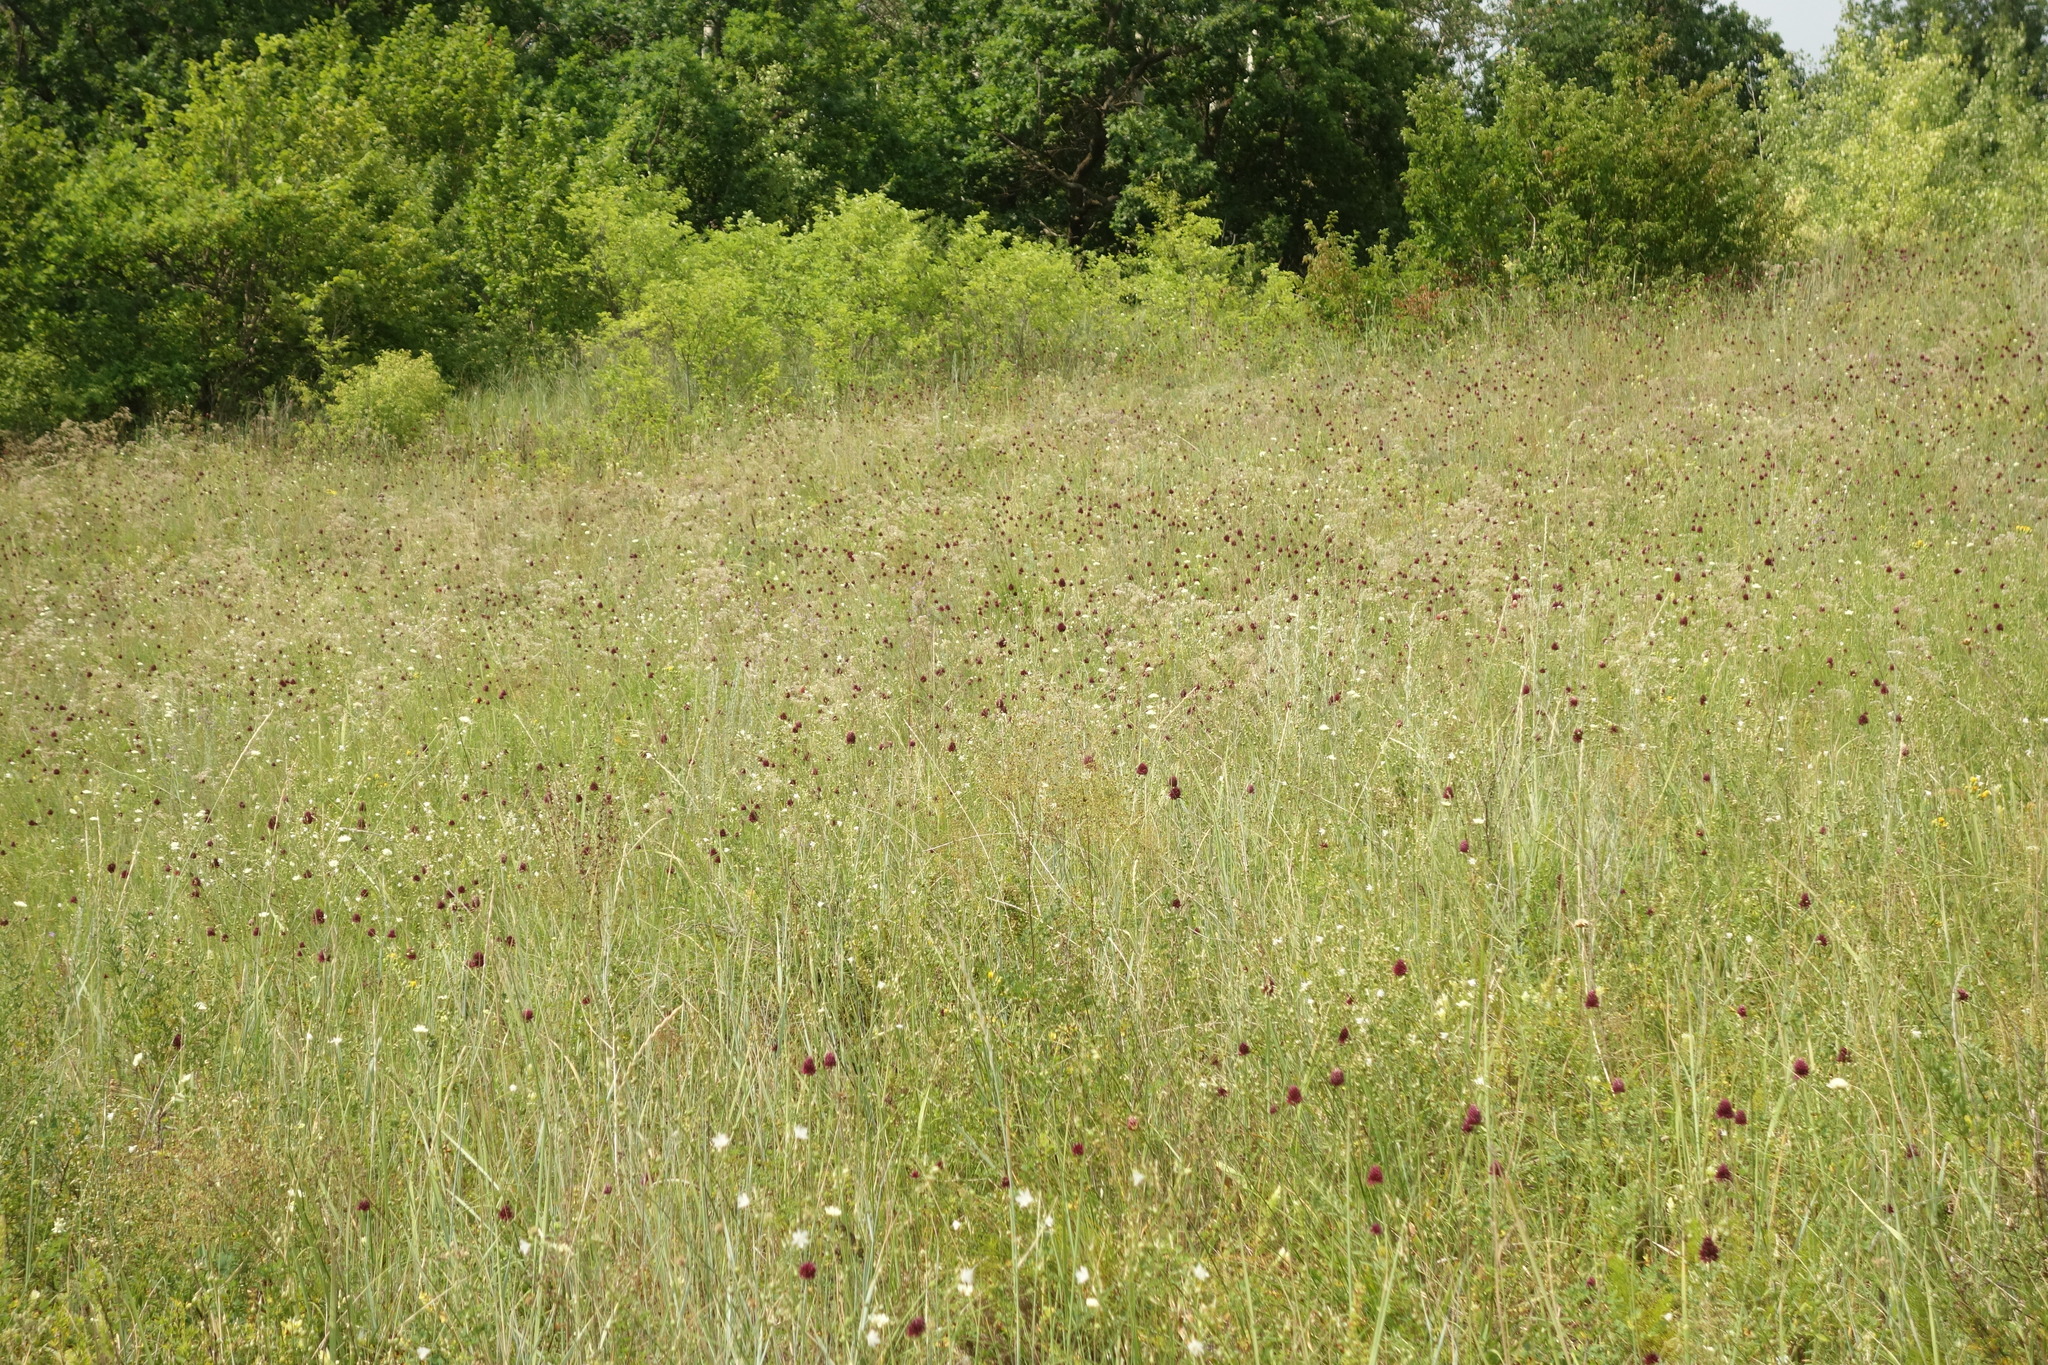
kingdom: Plantae
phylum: Tracheophyta
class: Liliopsida
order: Asparagales
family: Amaryllidaceae
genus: Allium
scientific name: Allium sphaerocephalon
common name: Round-headed leek
